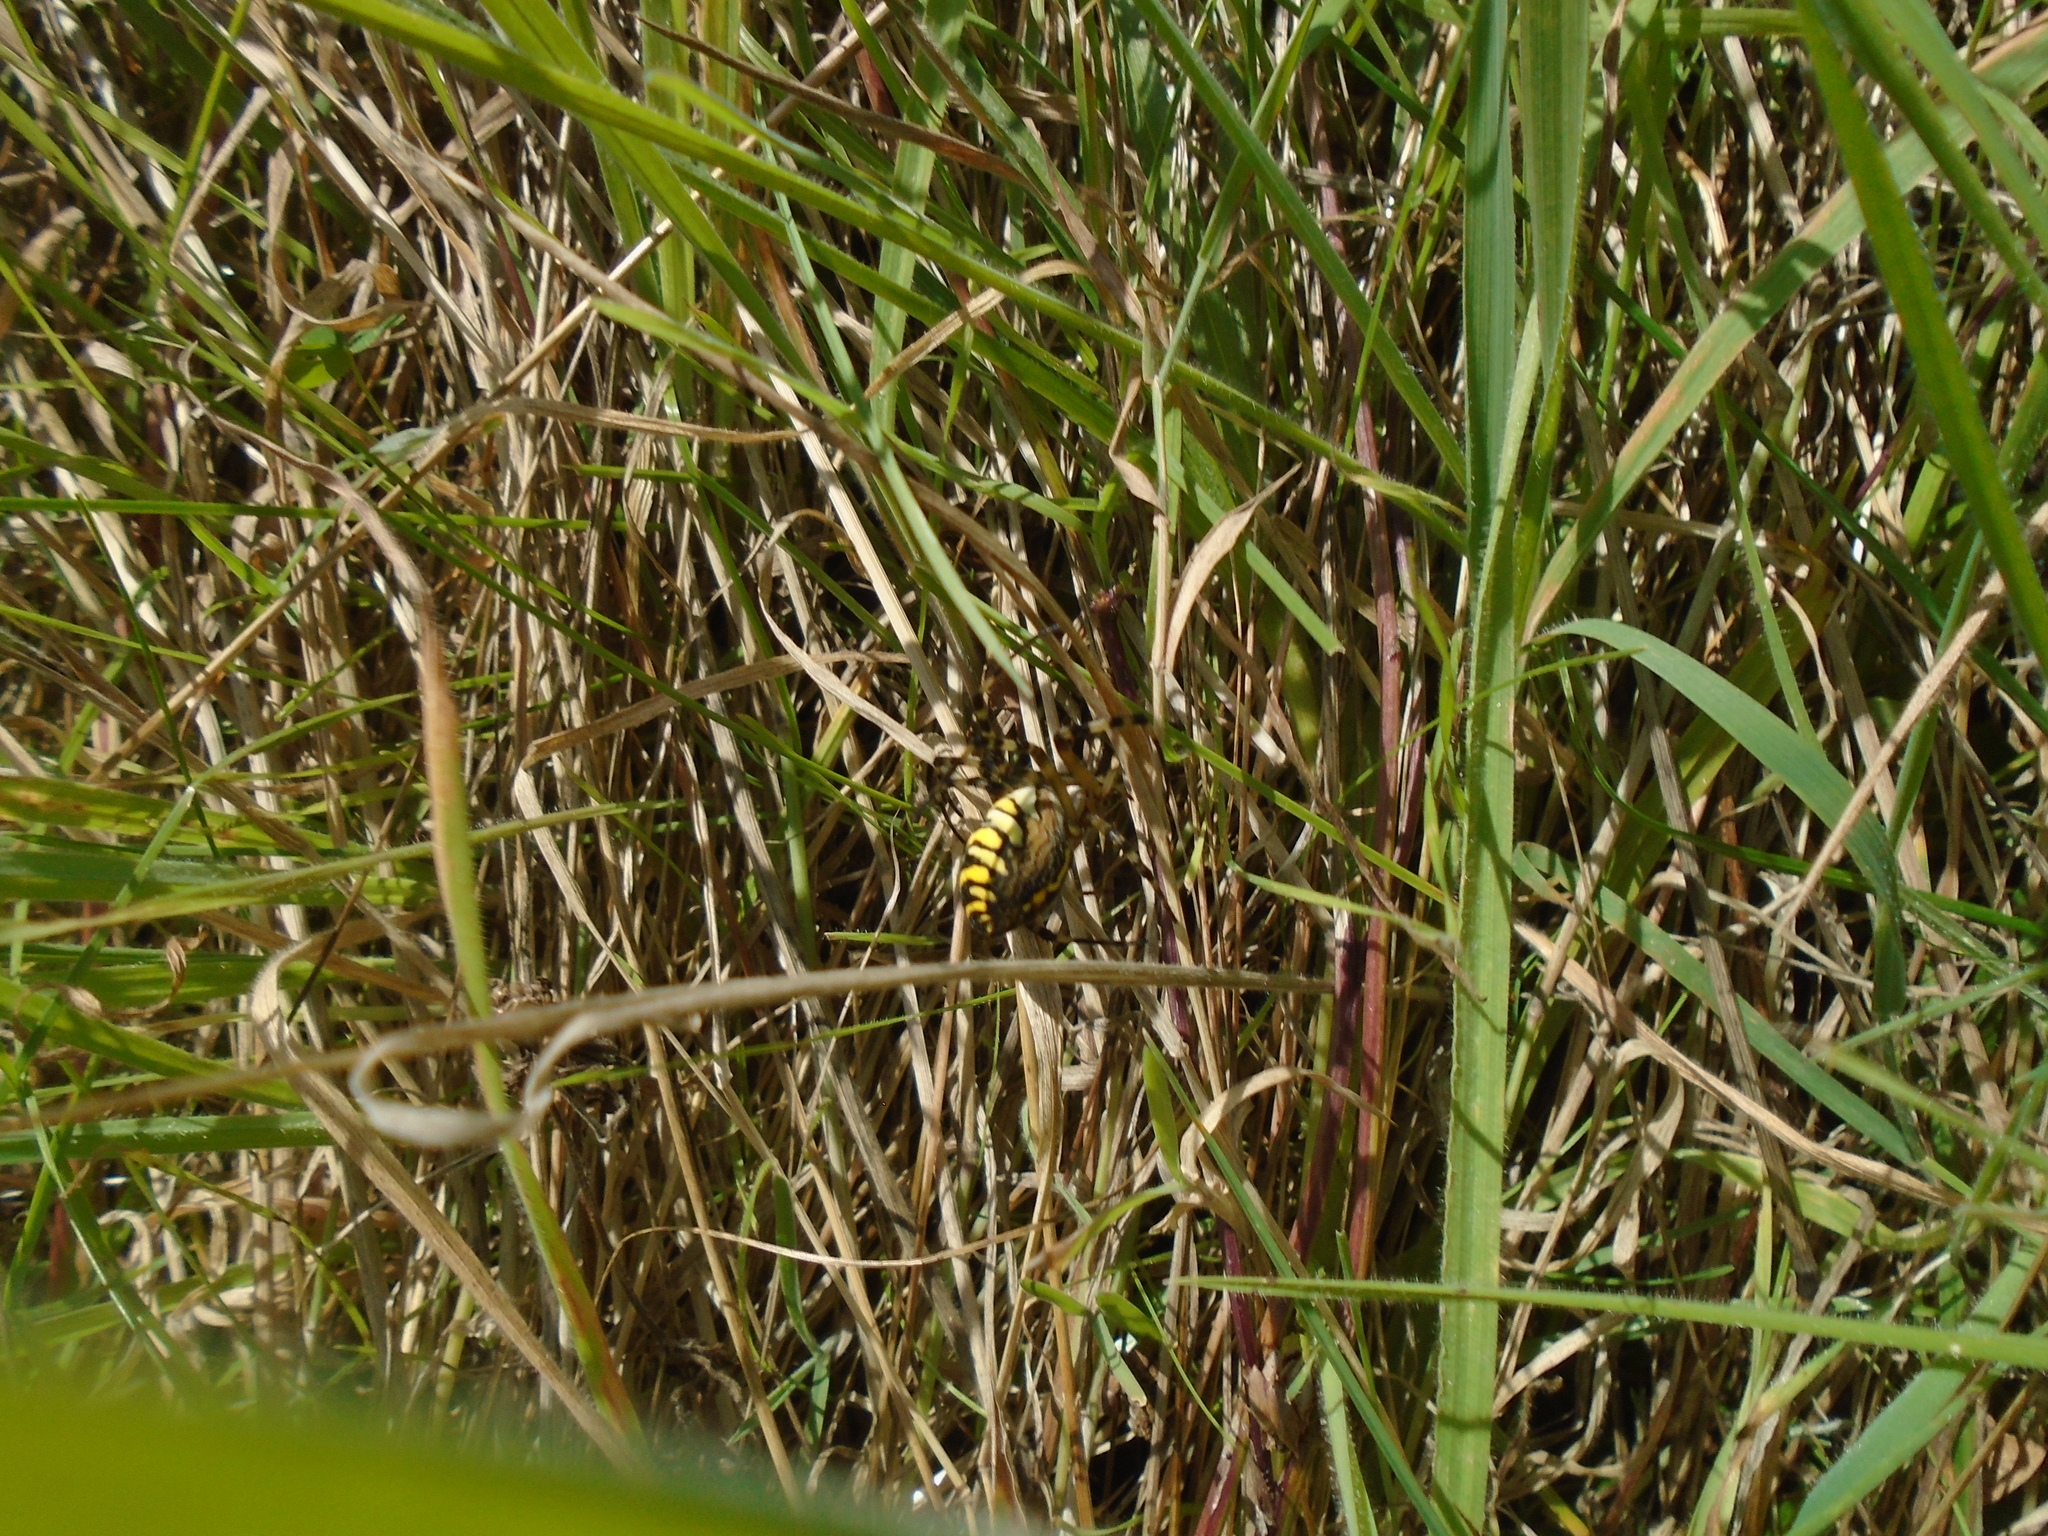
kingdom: Animalia
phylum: Arthropoda
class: Arachnida
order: Araneae
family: Araneidae
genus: Argiope
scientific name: Argiope bruennichi
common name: Wasp spider
